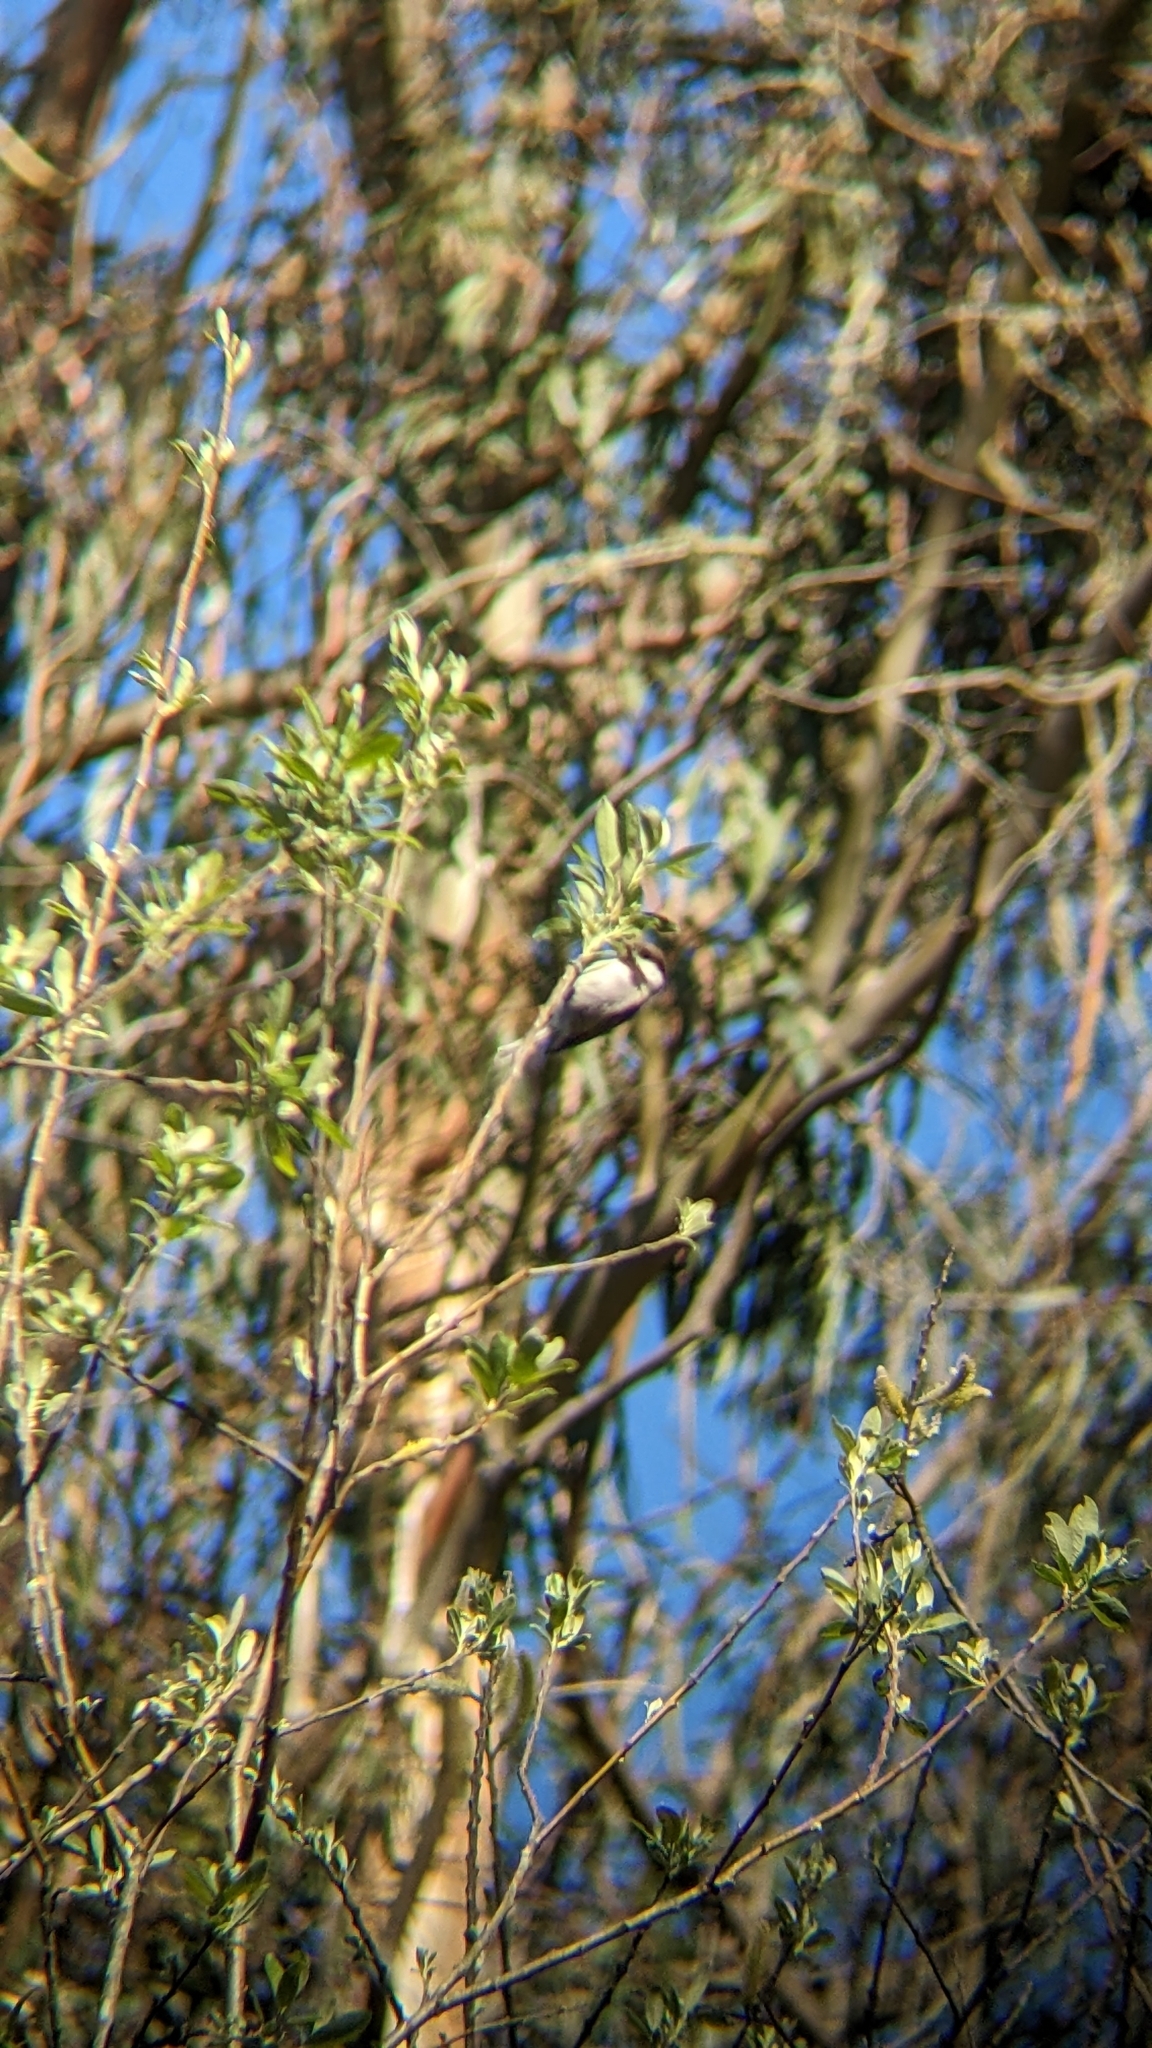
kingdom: Animalia
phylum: Chordata
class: Aves
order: Passeriformes
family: Paridae
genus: Poecile
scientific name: Poecile rufescens
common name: Chestnut-backed chickadee
